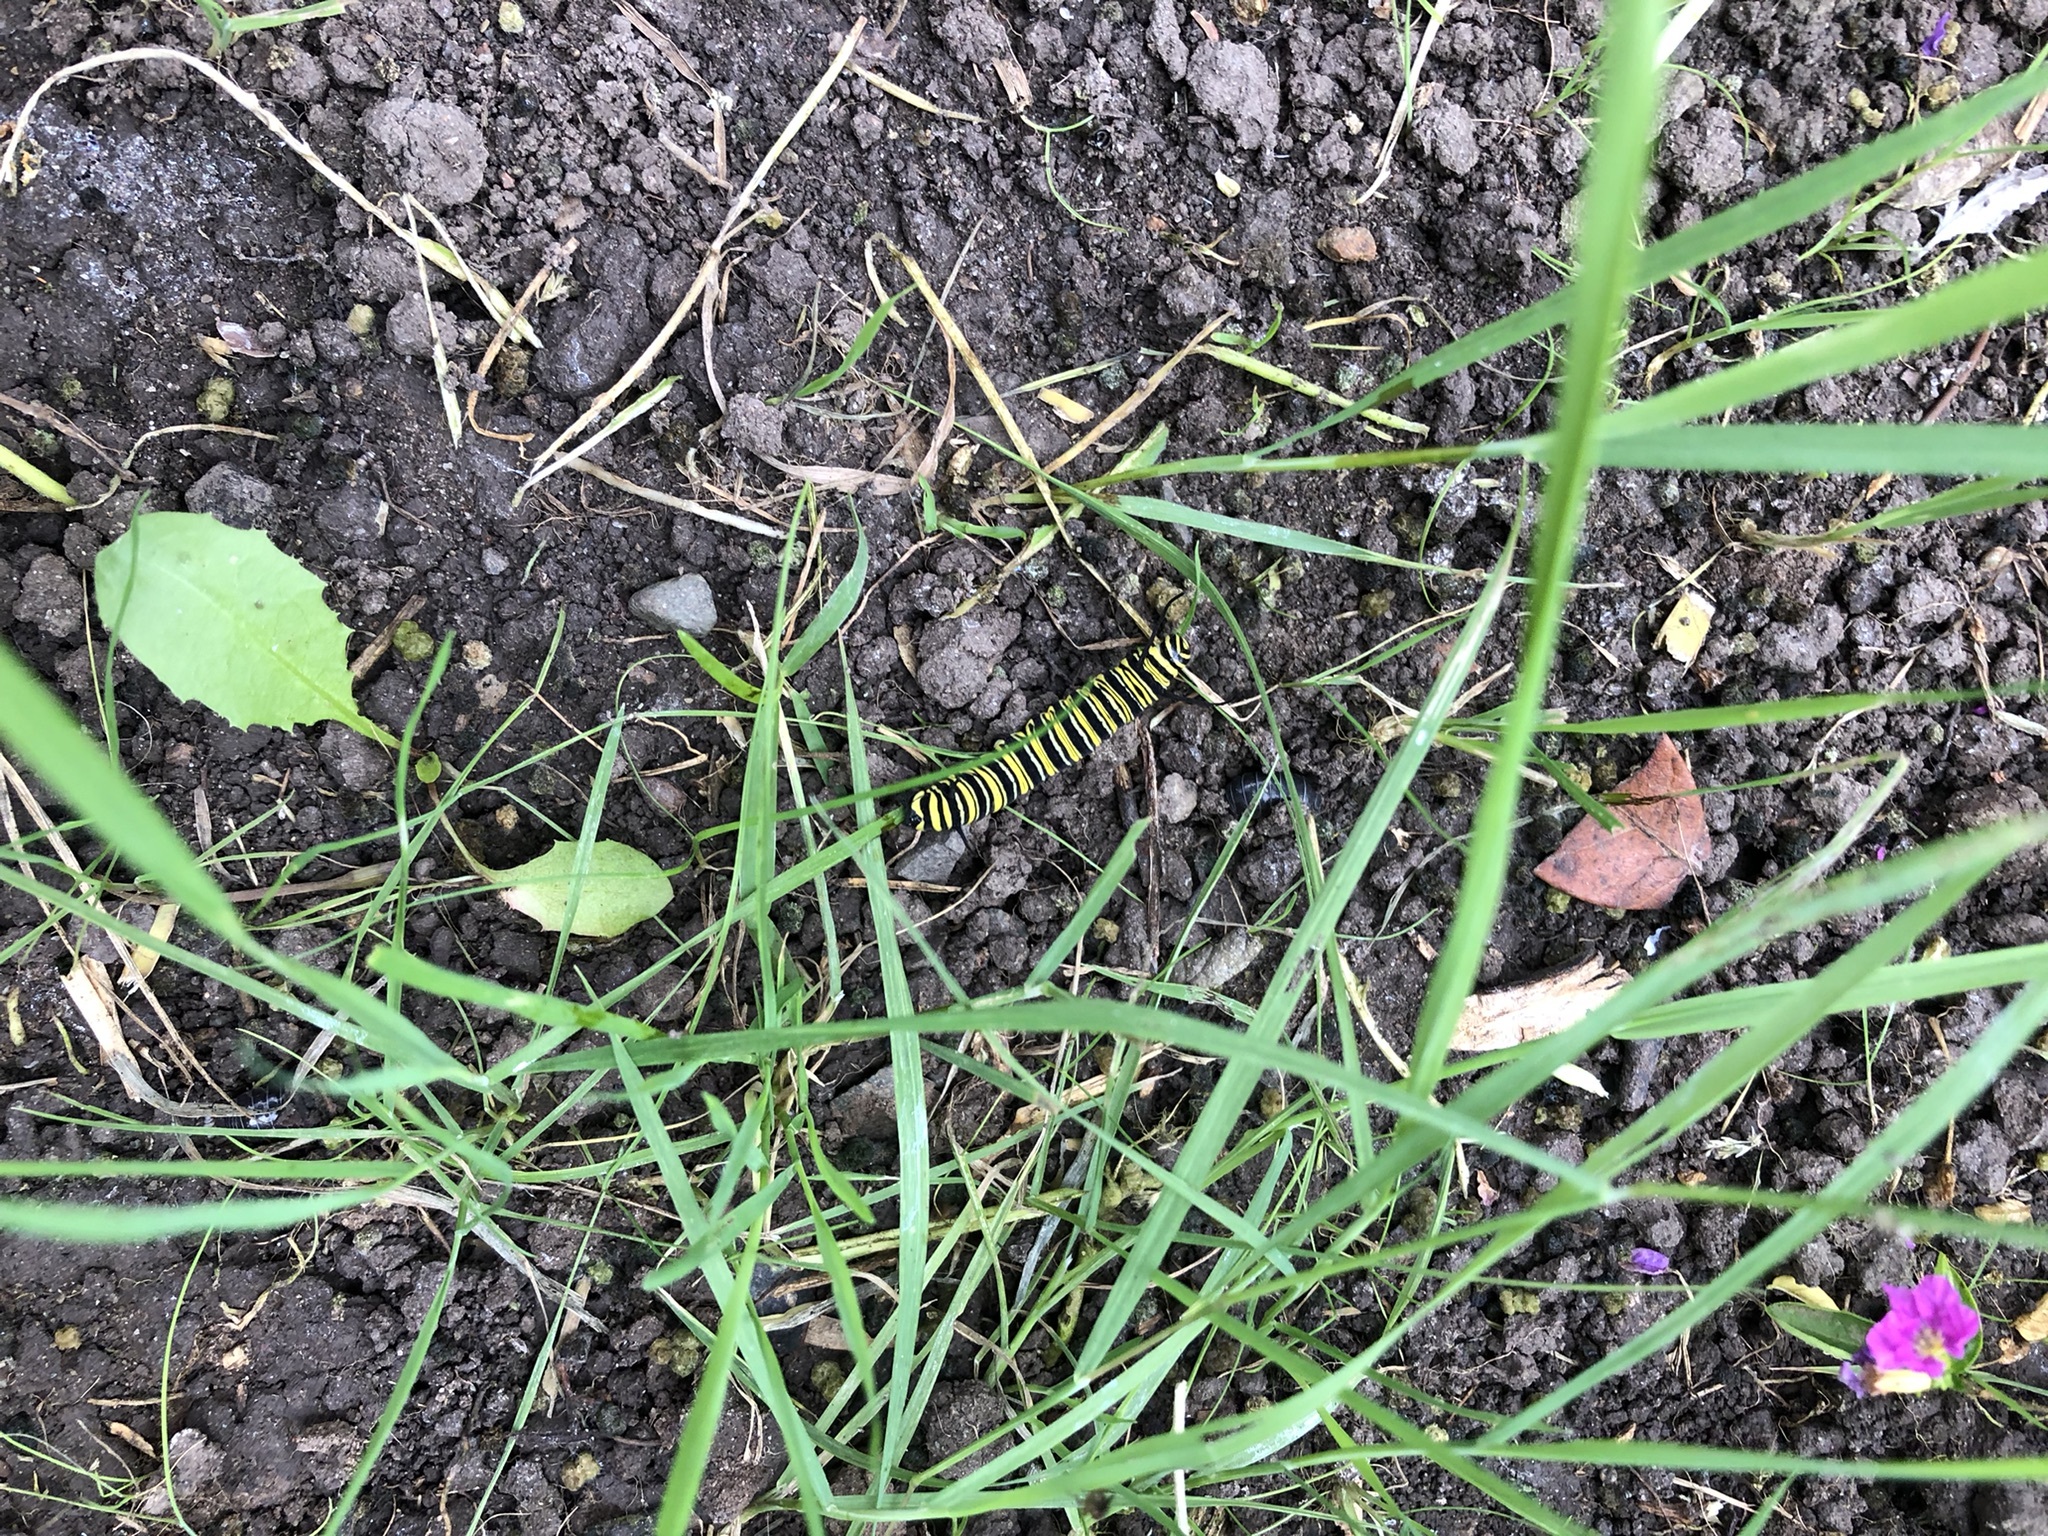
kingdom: Plantae
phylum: Tracheophyta
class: Magnoliopsida
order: Gentianales
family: Apocynaceae
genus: Asclepias
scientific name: Asclepias curassavica
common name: Bloodflower
